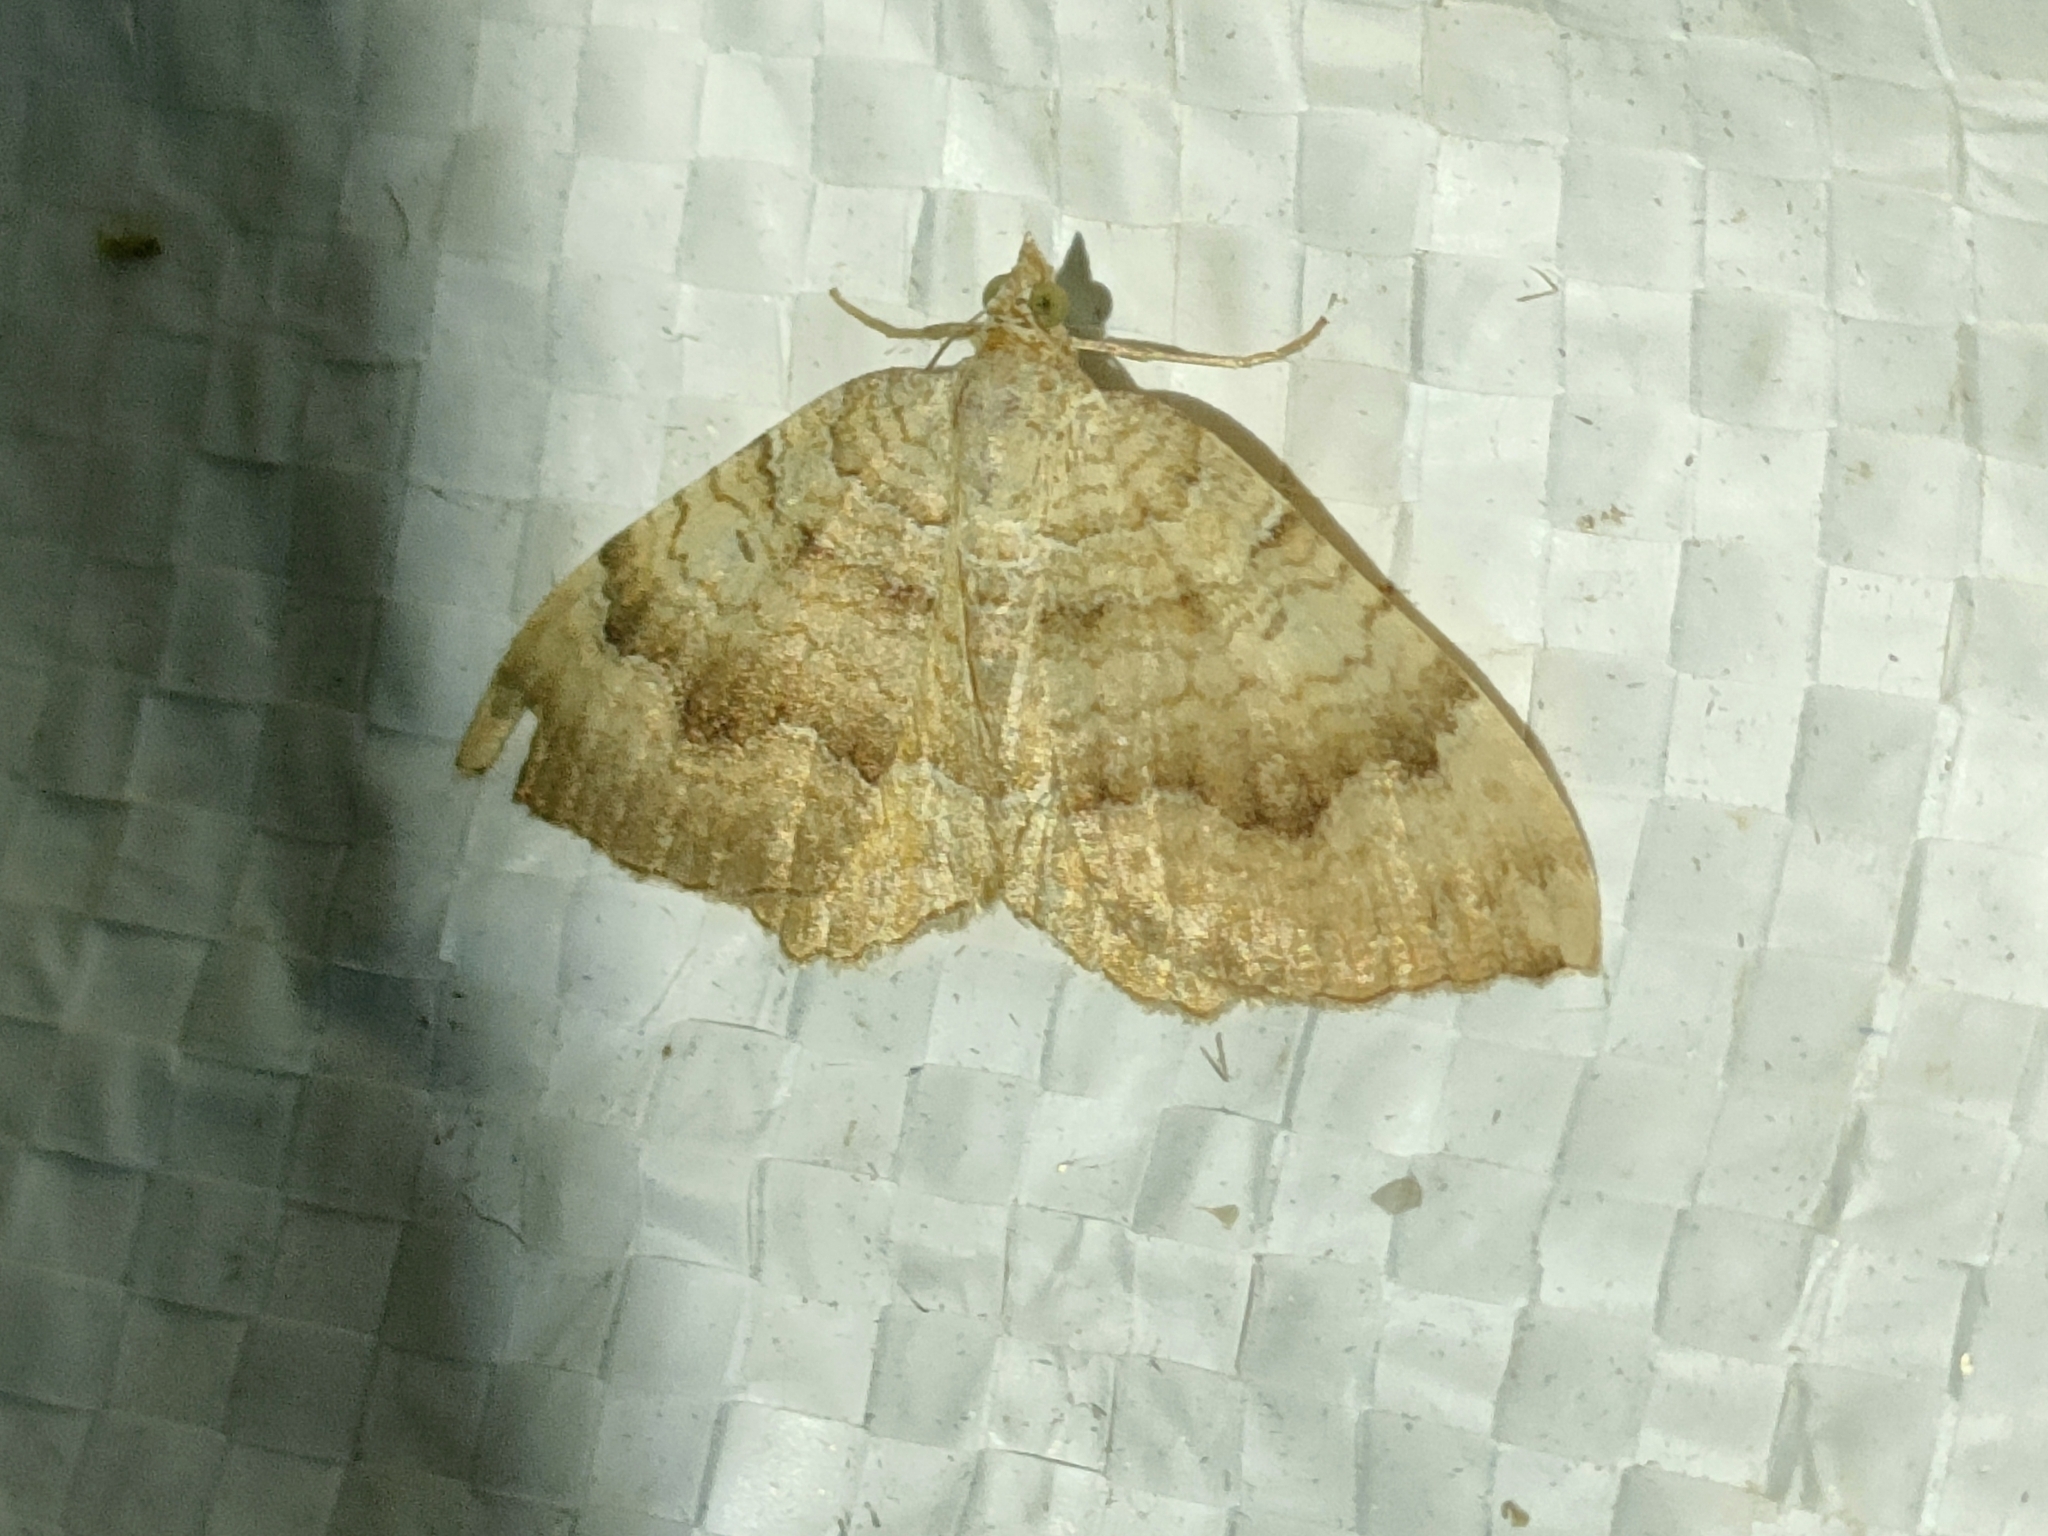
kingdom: Animalia
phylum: Arthropoda
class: Insecta
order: Lepidoptera
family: Geometridae
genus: Camptogramma
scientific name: Camptogramma bilineata
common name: Yellow shell
